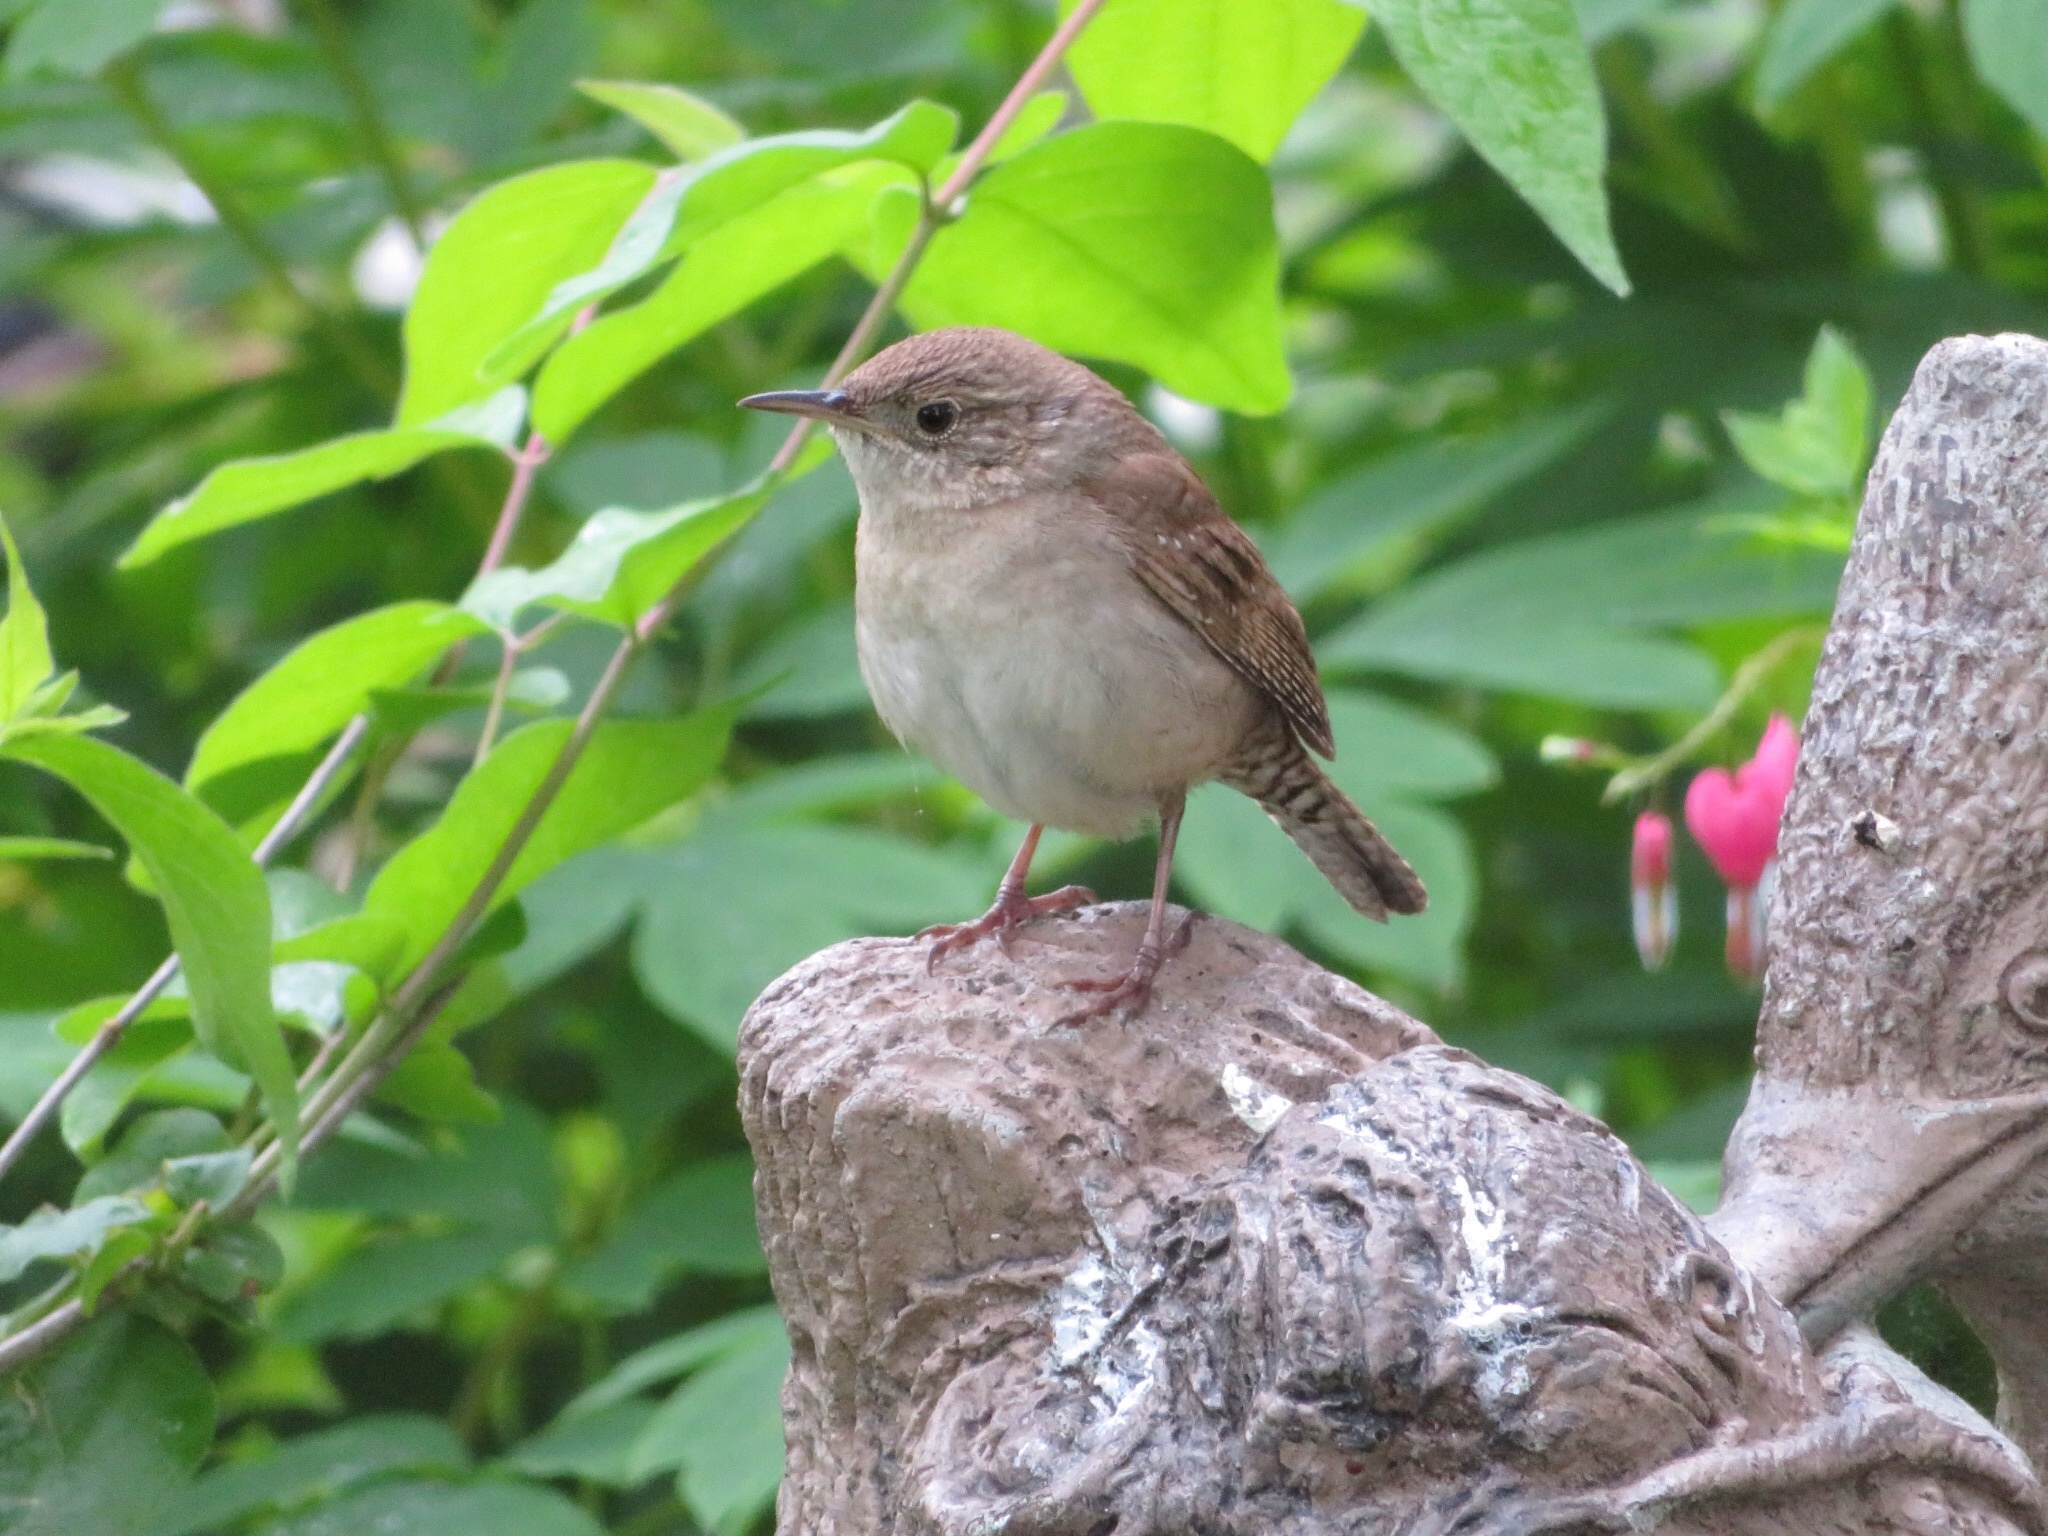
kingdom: Animalia
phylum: Chordata
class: Aves
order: Passeriformes
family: Troglodytidae
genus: Troglodytes
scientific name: Troglodytes aedon
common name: House wren
